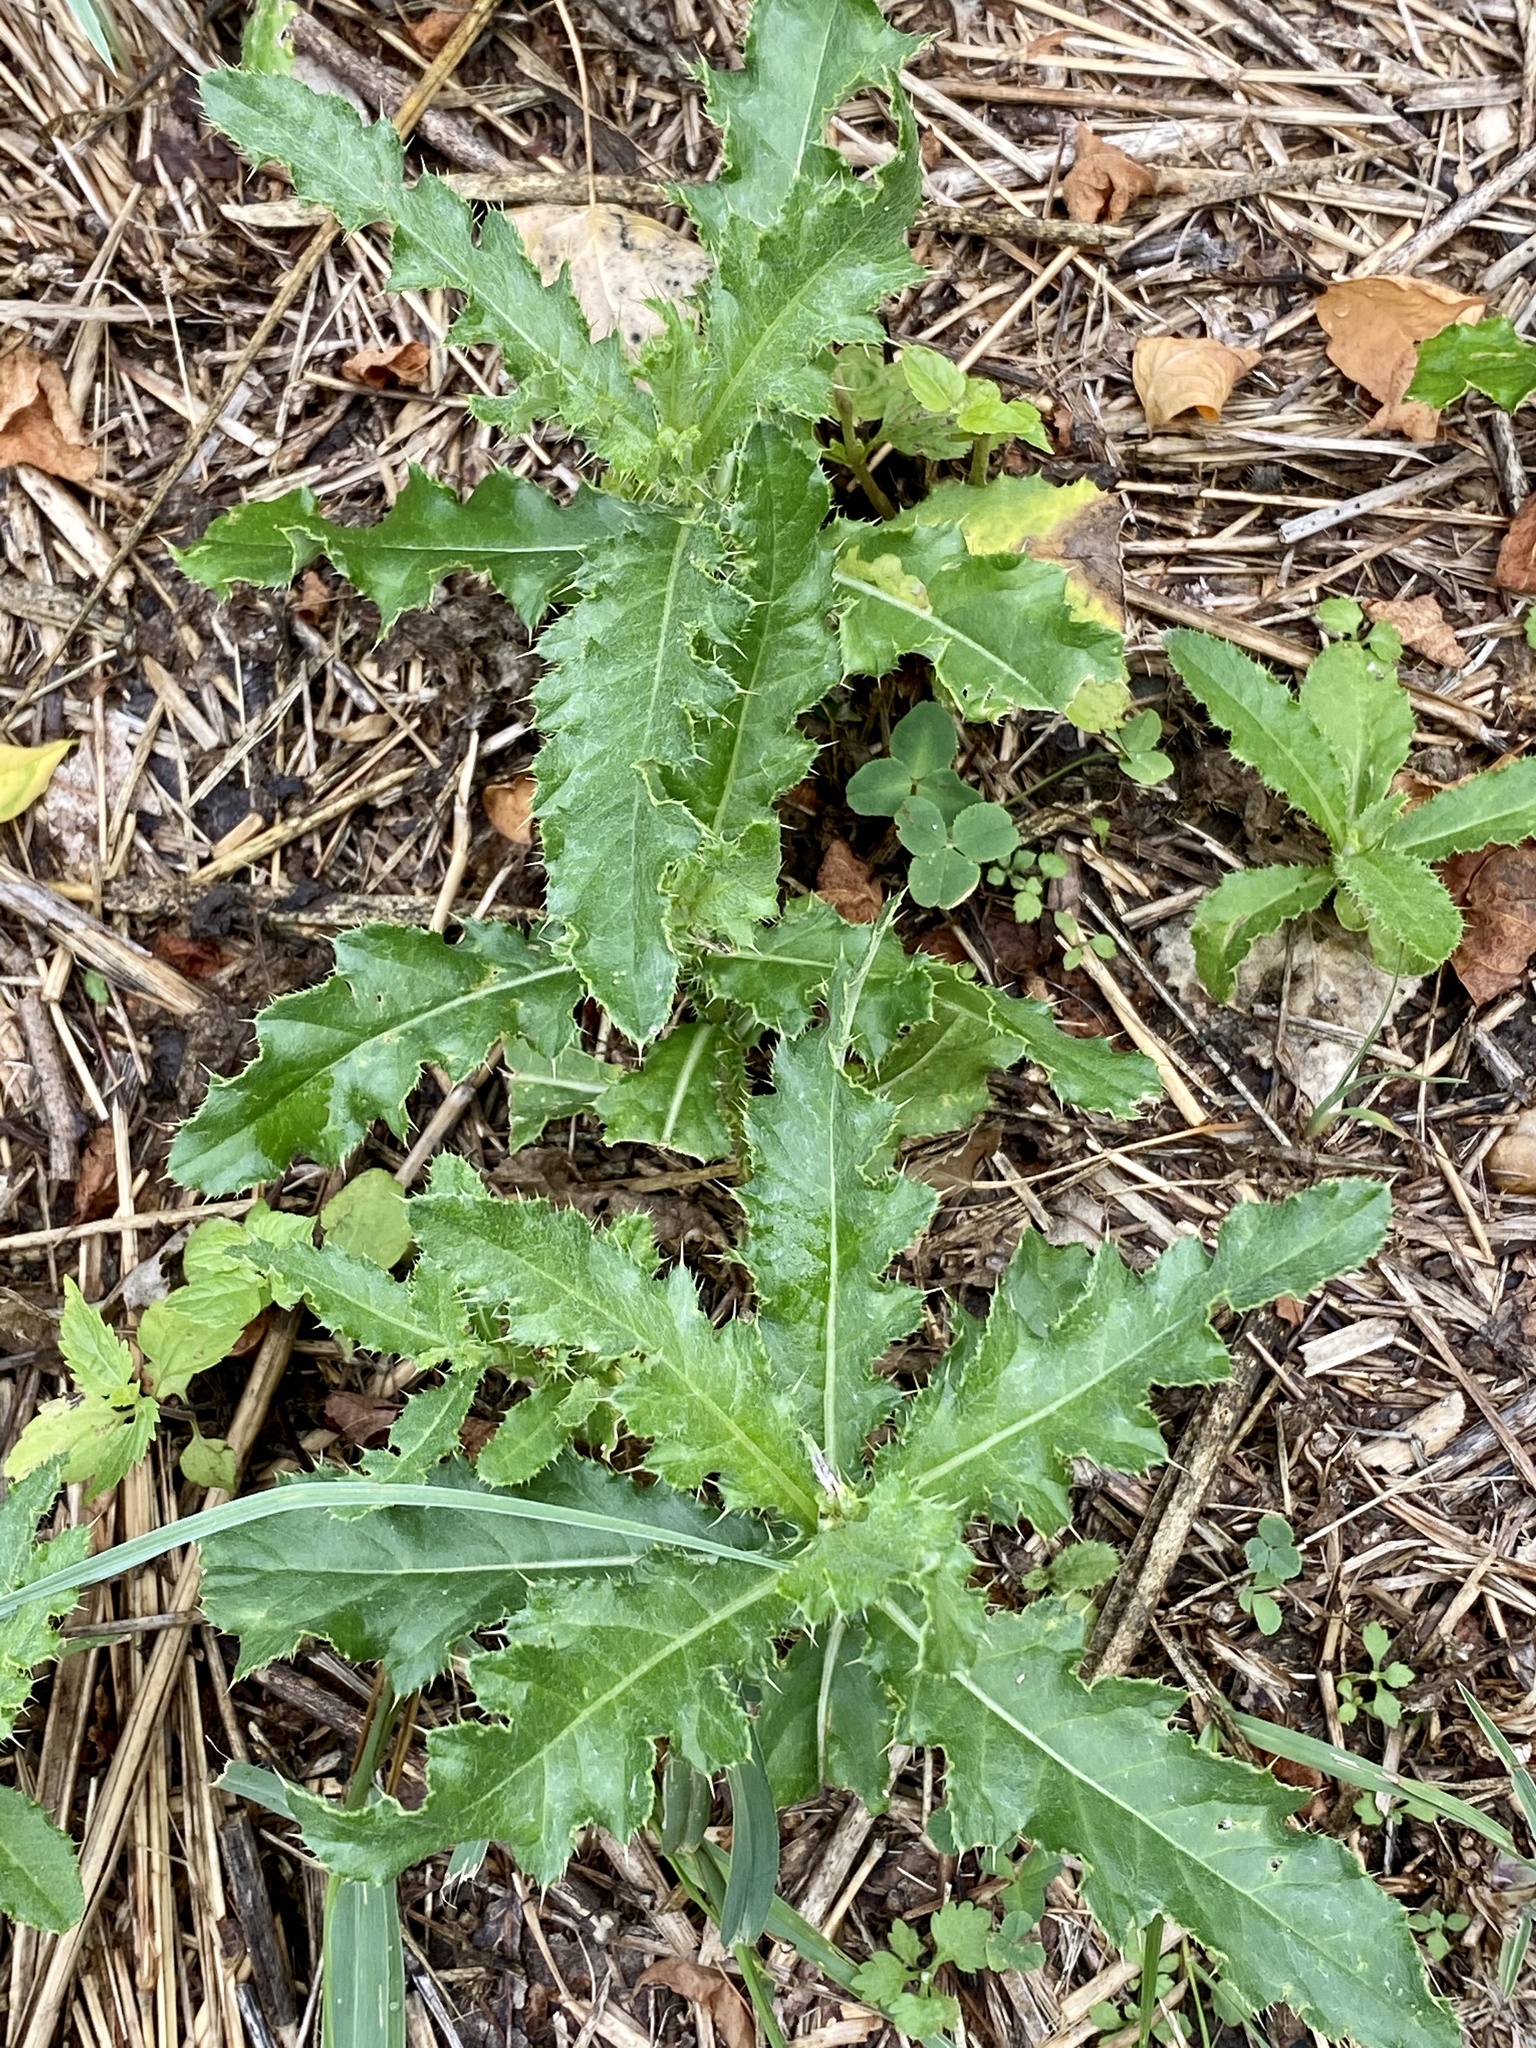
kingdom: Animalia
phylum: Arthropoda
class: Insecta
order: Diptera
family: Tephritidae
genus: Urophora
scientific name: Urophora cardui
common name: Fruit fly
